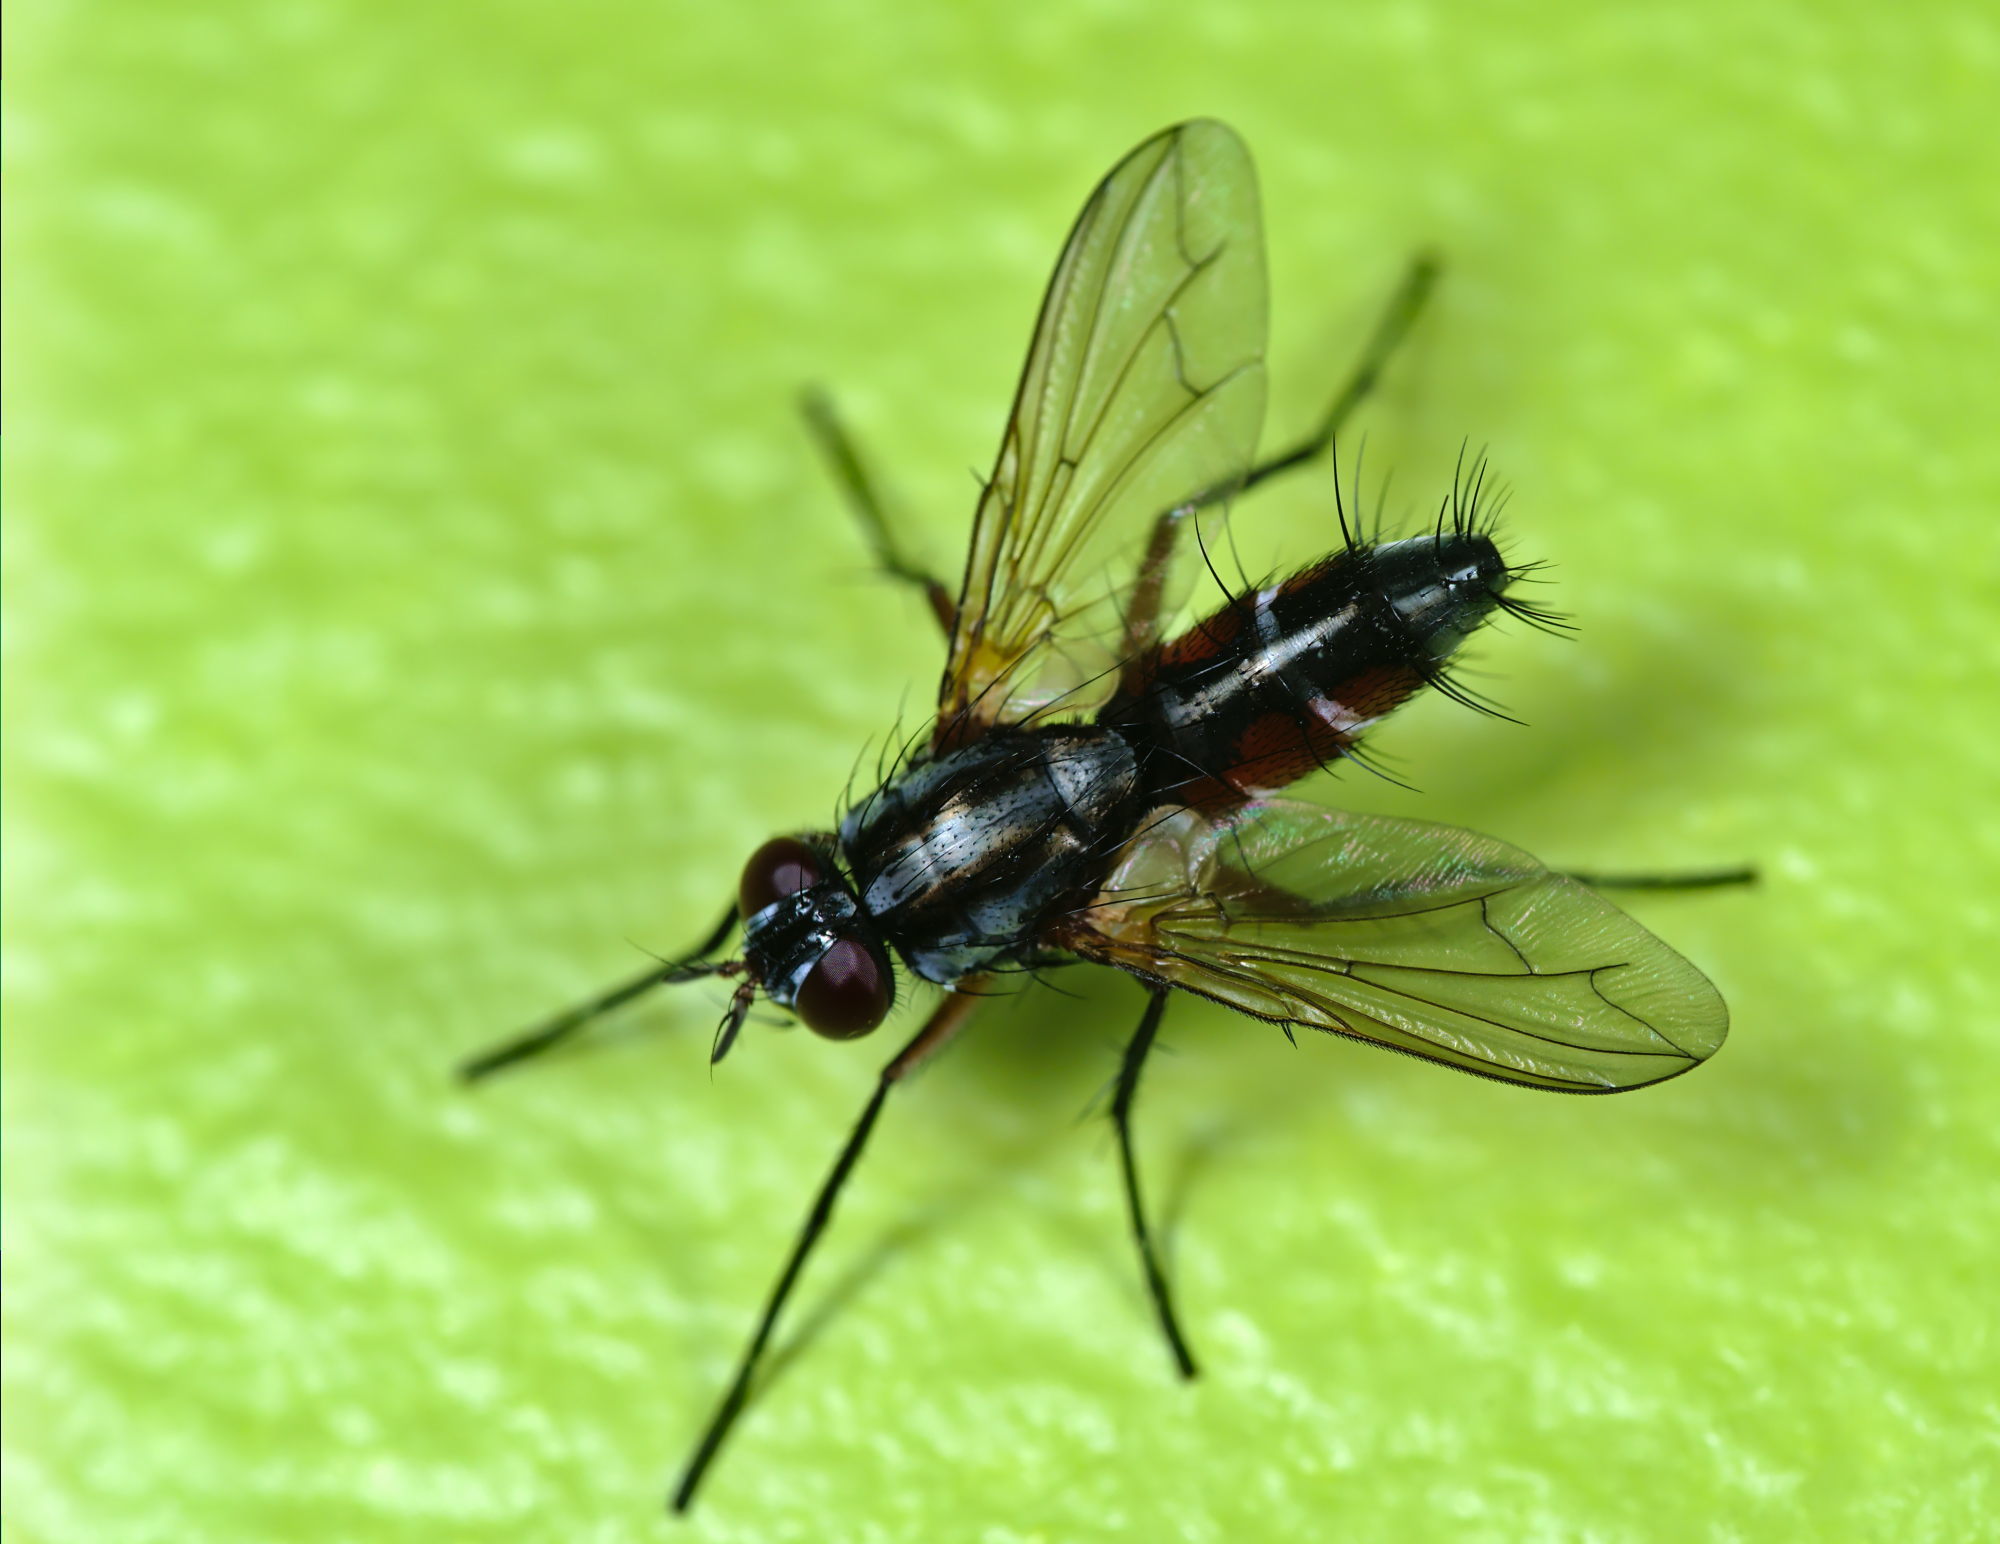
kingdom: Animalia
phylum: Arthropoda
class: Insecta
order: Diptera
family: Tachinidae
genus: Mintho
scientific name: Mintho rufiventris
